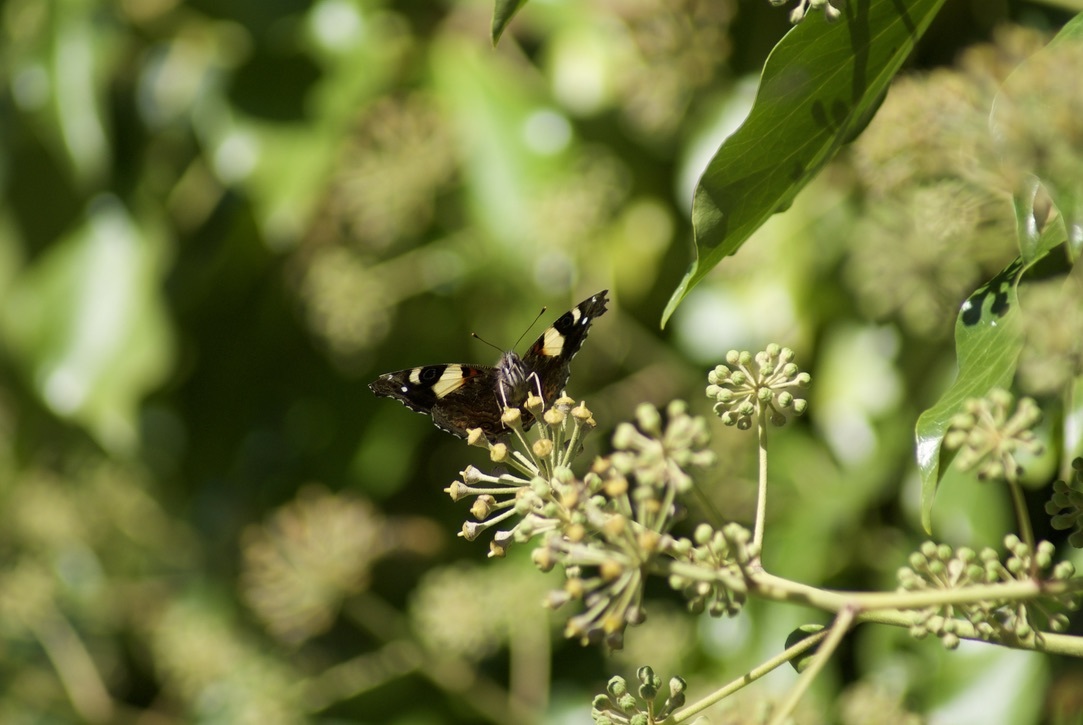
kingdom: Animalia
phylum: Arthropoda
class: Insecta
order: Lepidoptera
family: Nymphalidae
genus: Vanessa
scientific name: Vanessa itea
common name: Yellow admiral
